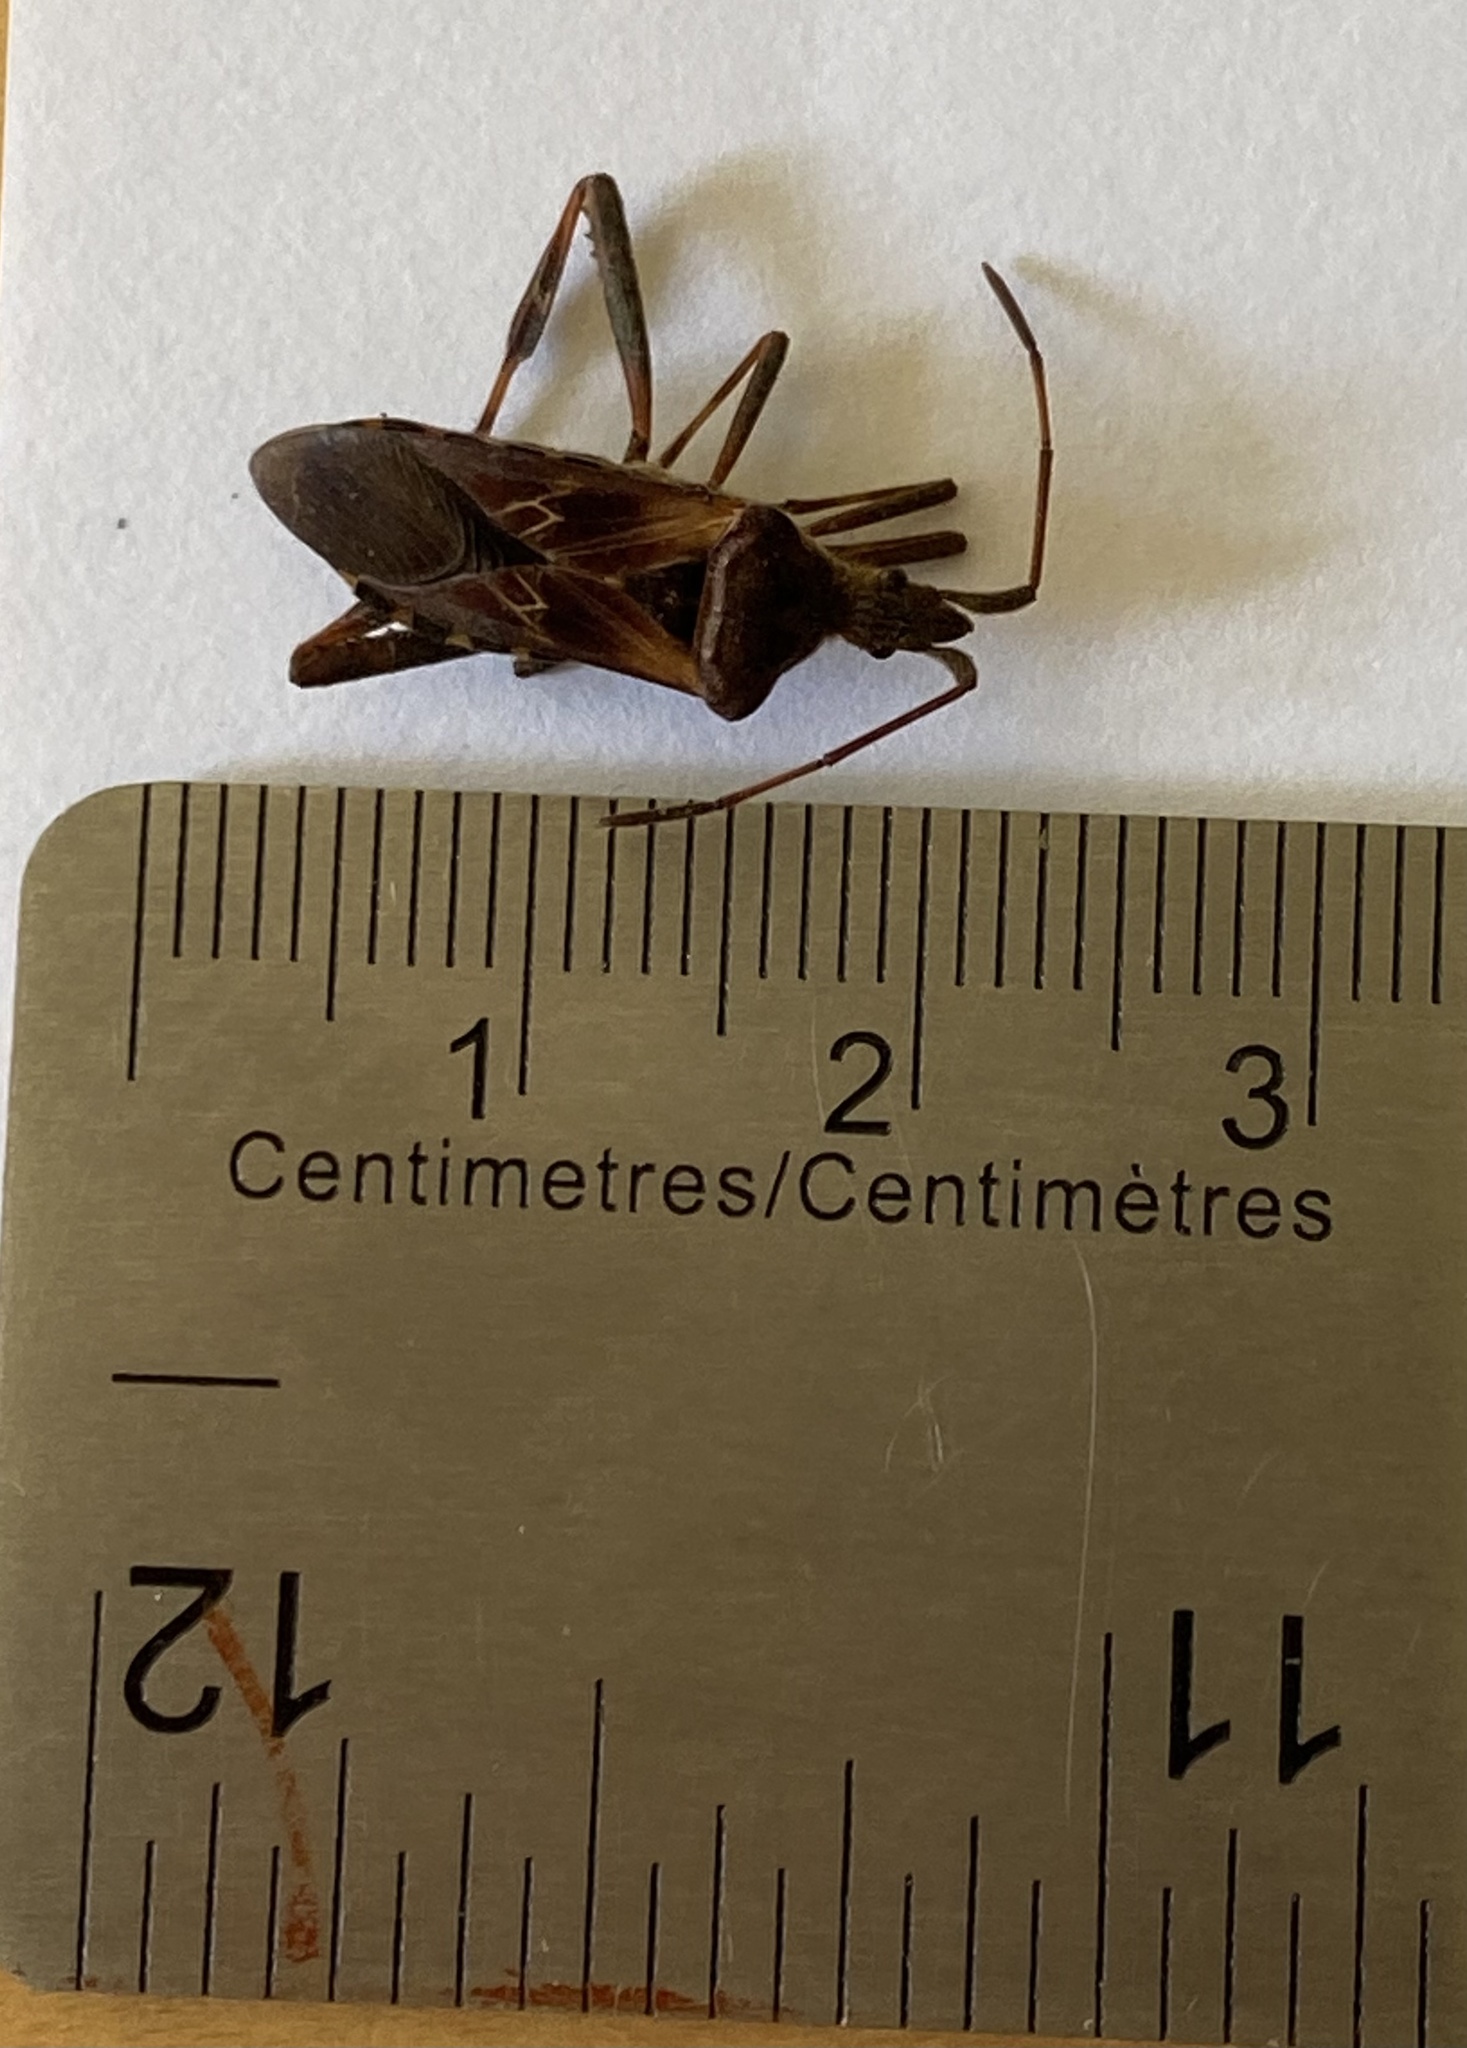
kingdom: Animalia
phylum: Arthropoda
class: Insecta
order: Hemiptera
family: Coreidae
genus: Leptoglossus
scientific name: Leptoglossus occidentalis
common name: Western conifer-seed bug
